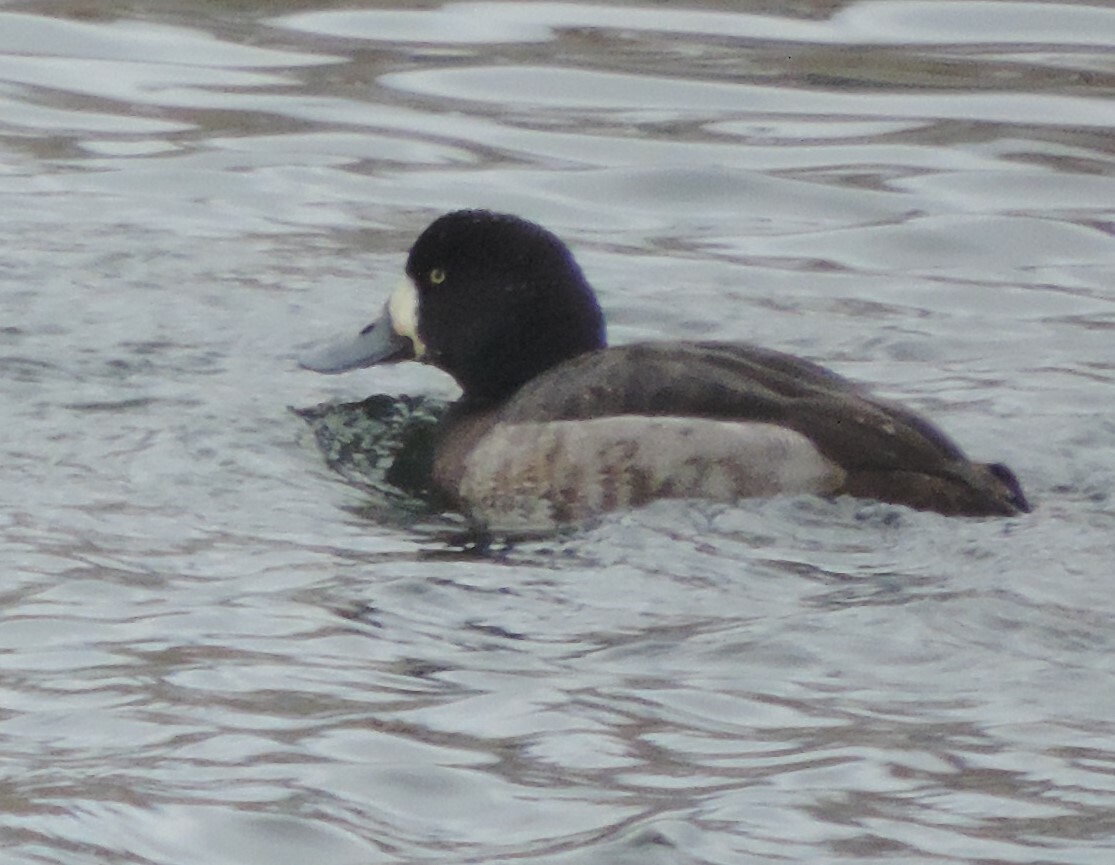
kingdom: Animalia
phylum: Chordata
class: Aves
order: Anseriformes
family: Anatidae
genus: Aythya
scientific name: Aythya marila
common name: Greater scaup
